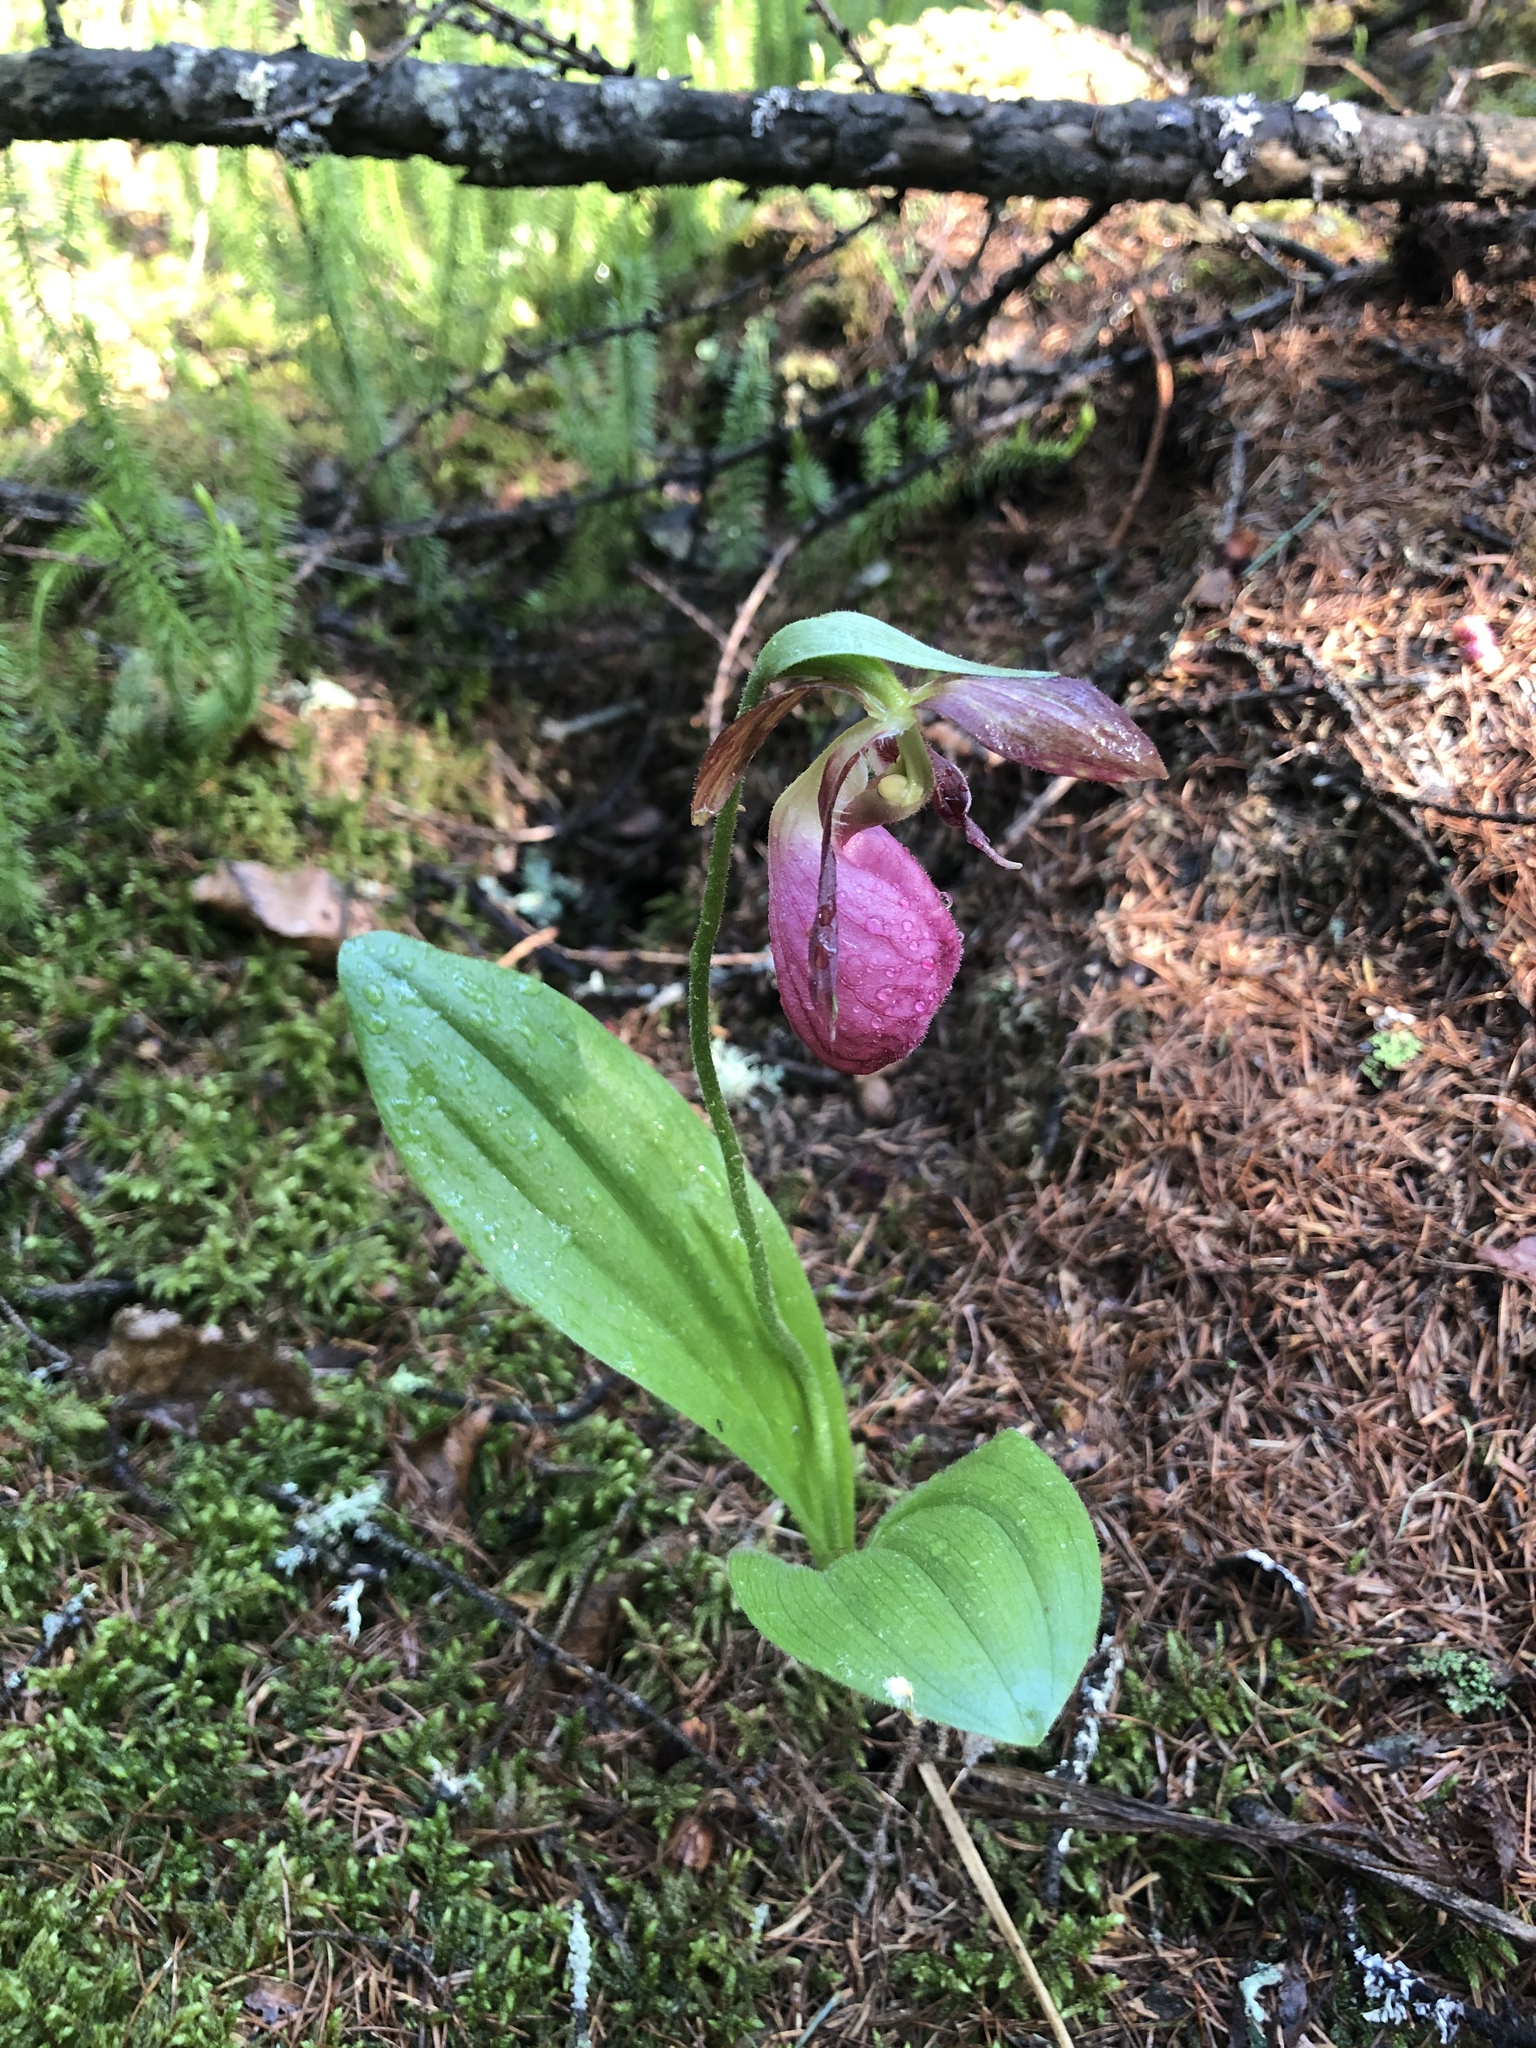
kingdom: Plantae
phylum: Tracheophyta
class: Liliopsida
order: Asparagales
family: Orchidaceae
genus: Cypripedium
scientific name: Cypripedium acaule
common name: Pink lady's-slipper
